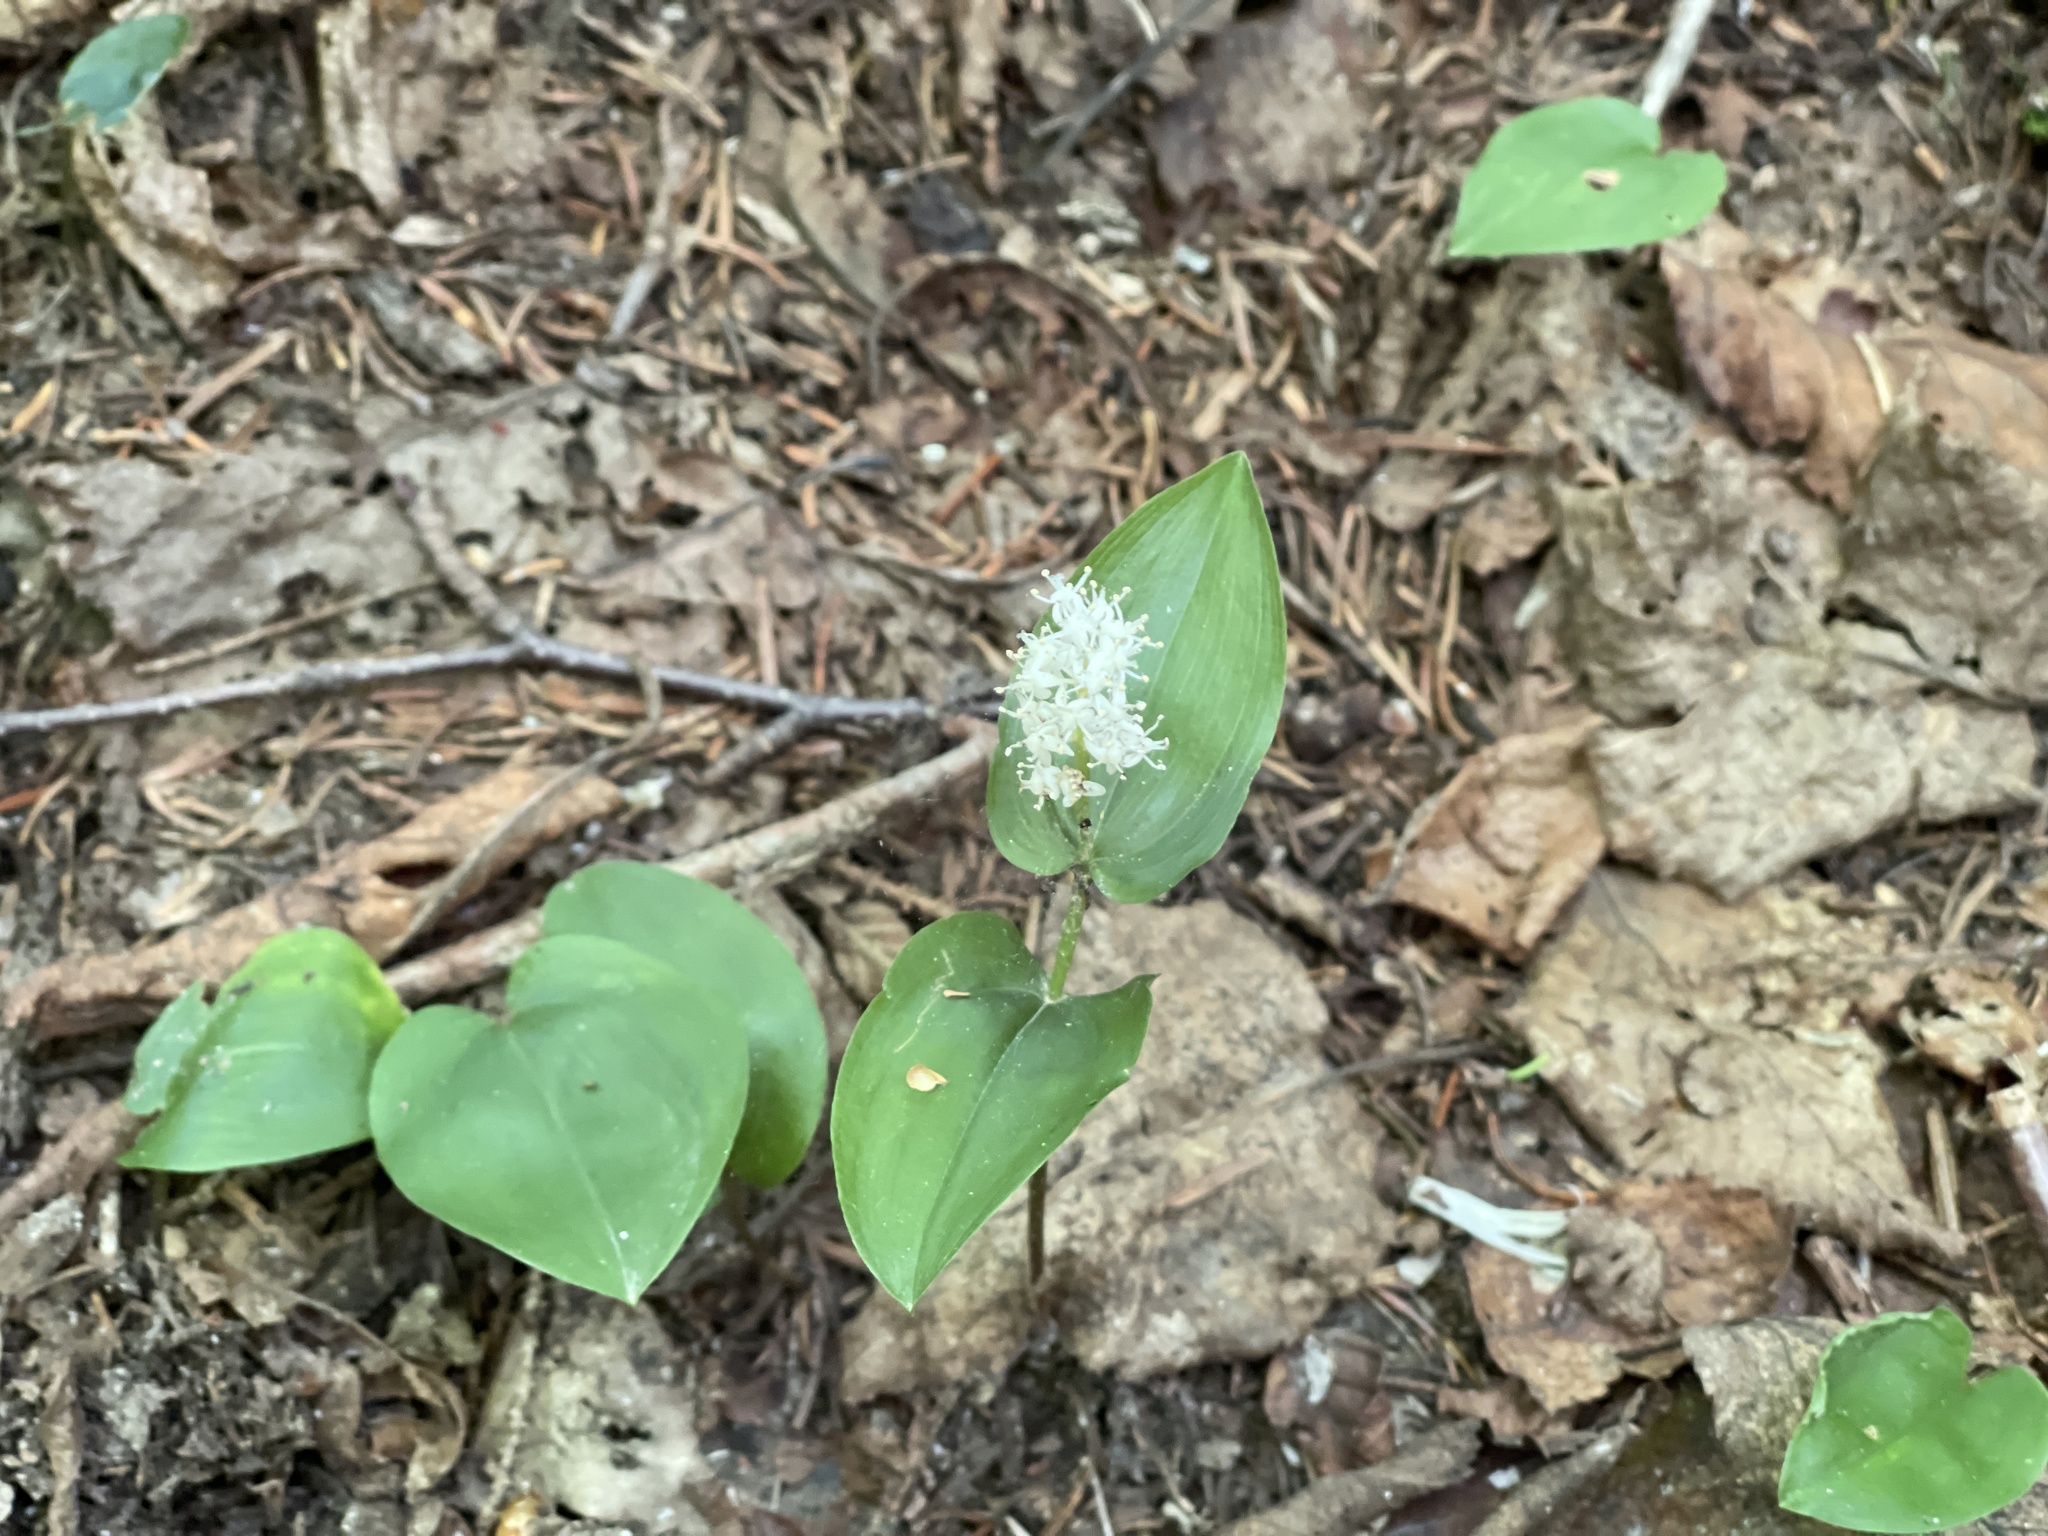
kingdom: Plantae
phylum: Tracheophyta
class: Liliopsida
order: Asparagales
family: Asparagaceae
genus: Maianthemum
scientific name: Maianthemum canadense
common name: False lily-of-the-valley
